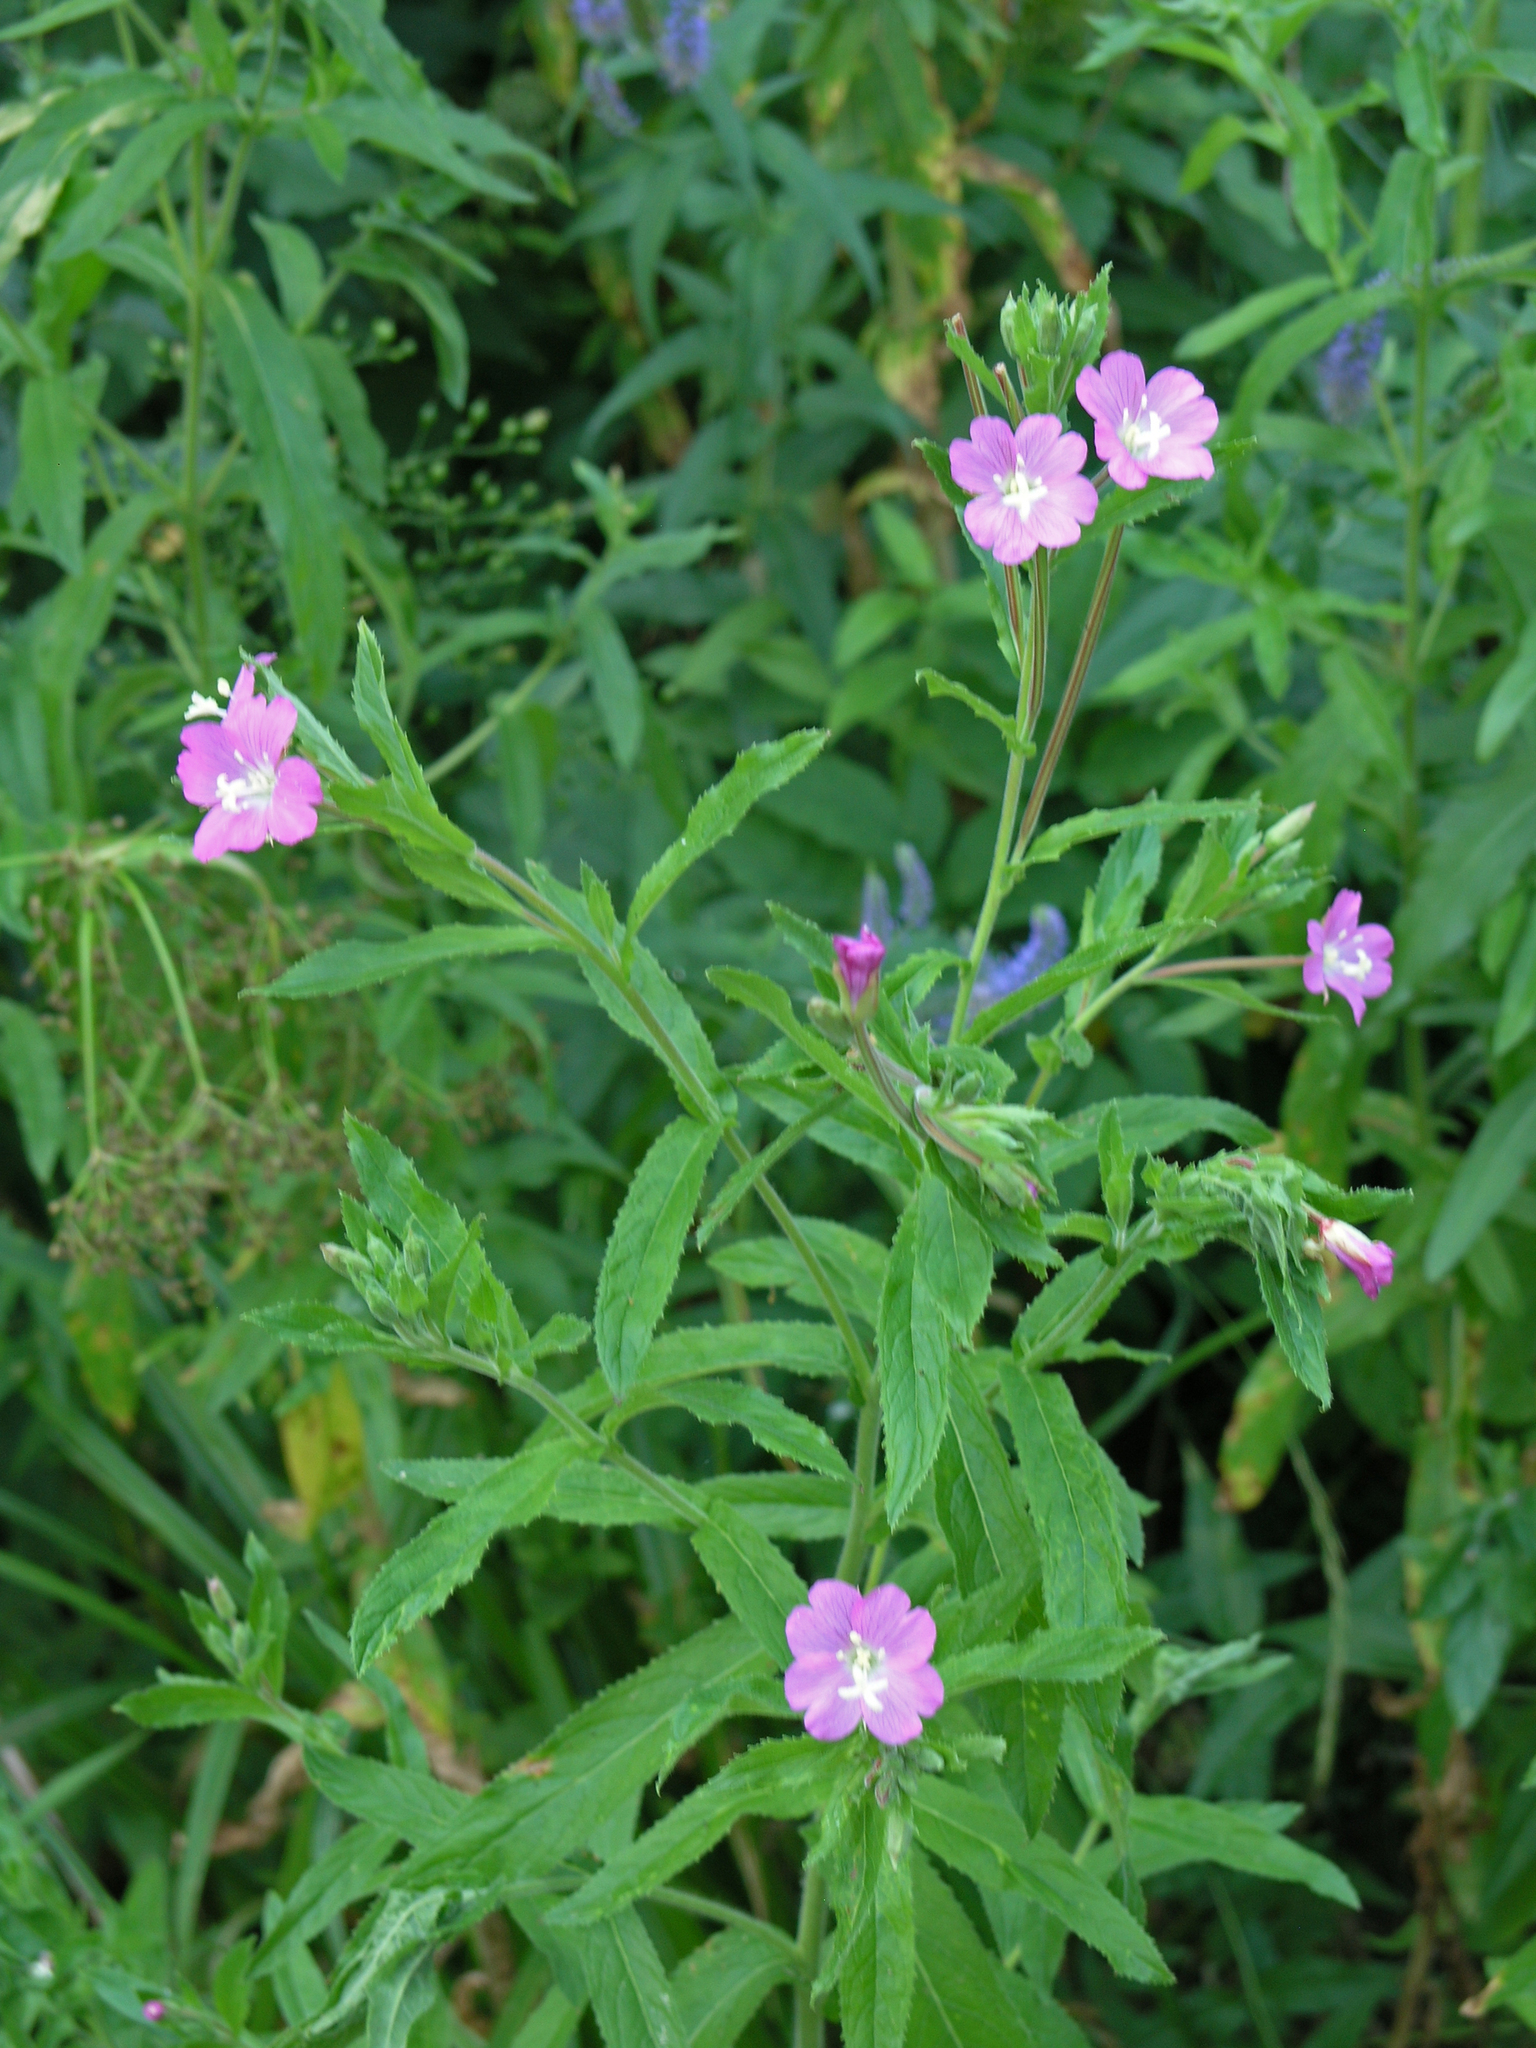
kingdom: Plantae
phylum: Tracheophyta
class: Magnoliopsida
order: Myrtales
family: Onagraceae
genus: Epilobium
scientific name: Epilobium hirsutum
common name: Great willowherb
